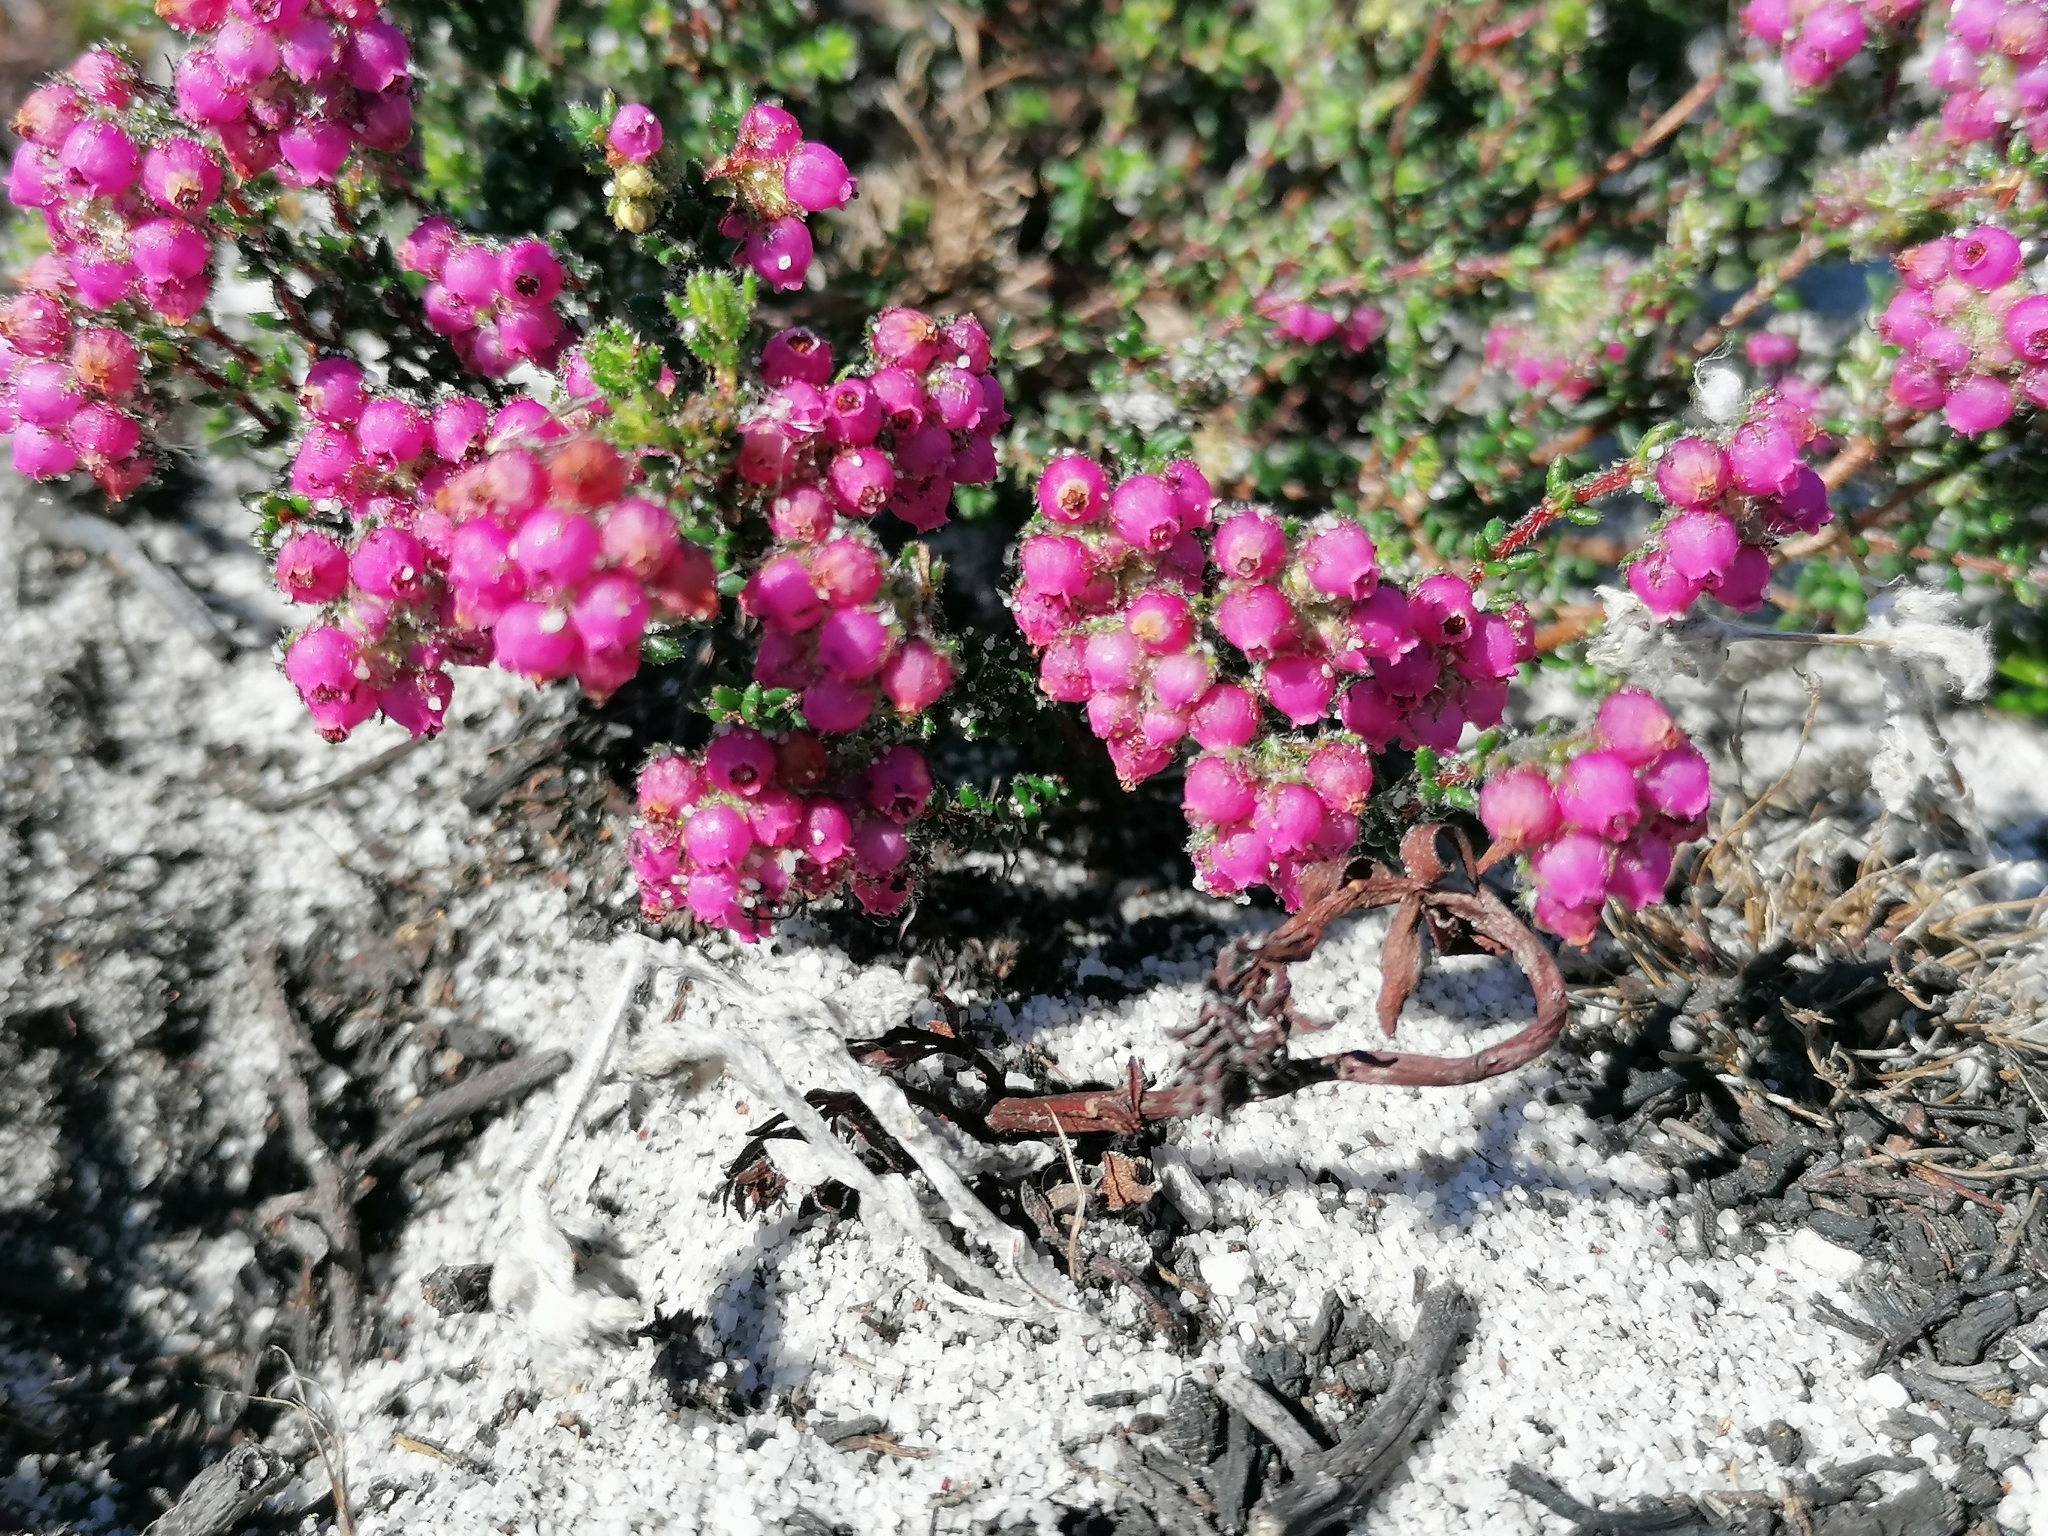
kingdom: Plantae
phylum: Tracheophyta
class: Magnoliopsida
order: Ericales
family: Ericaceae
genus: Erica
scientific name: Erica clavisepala
